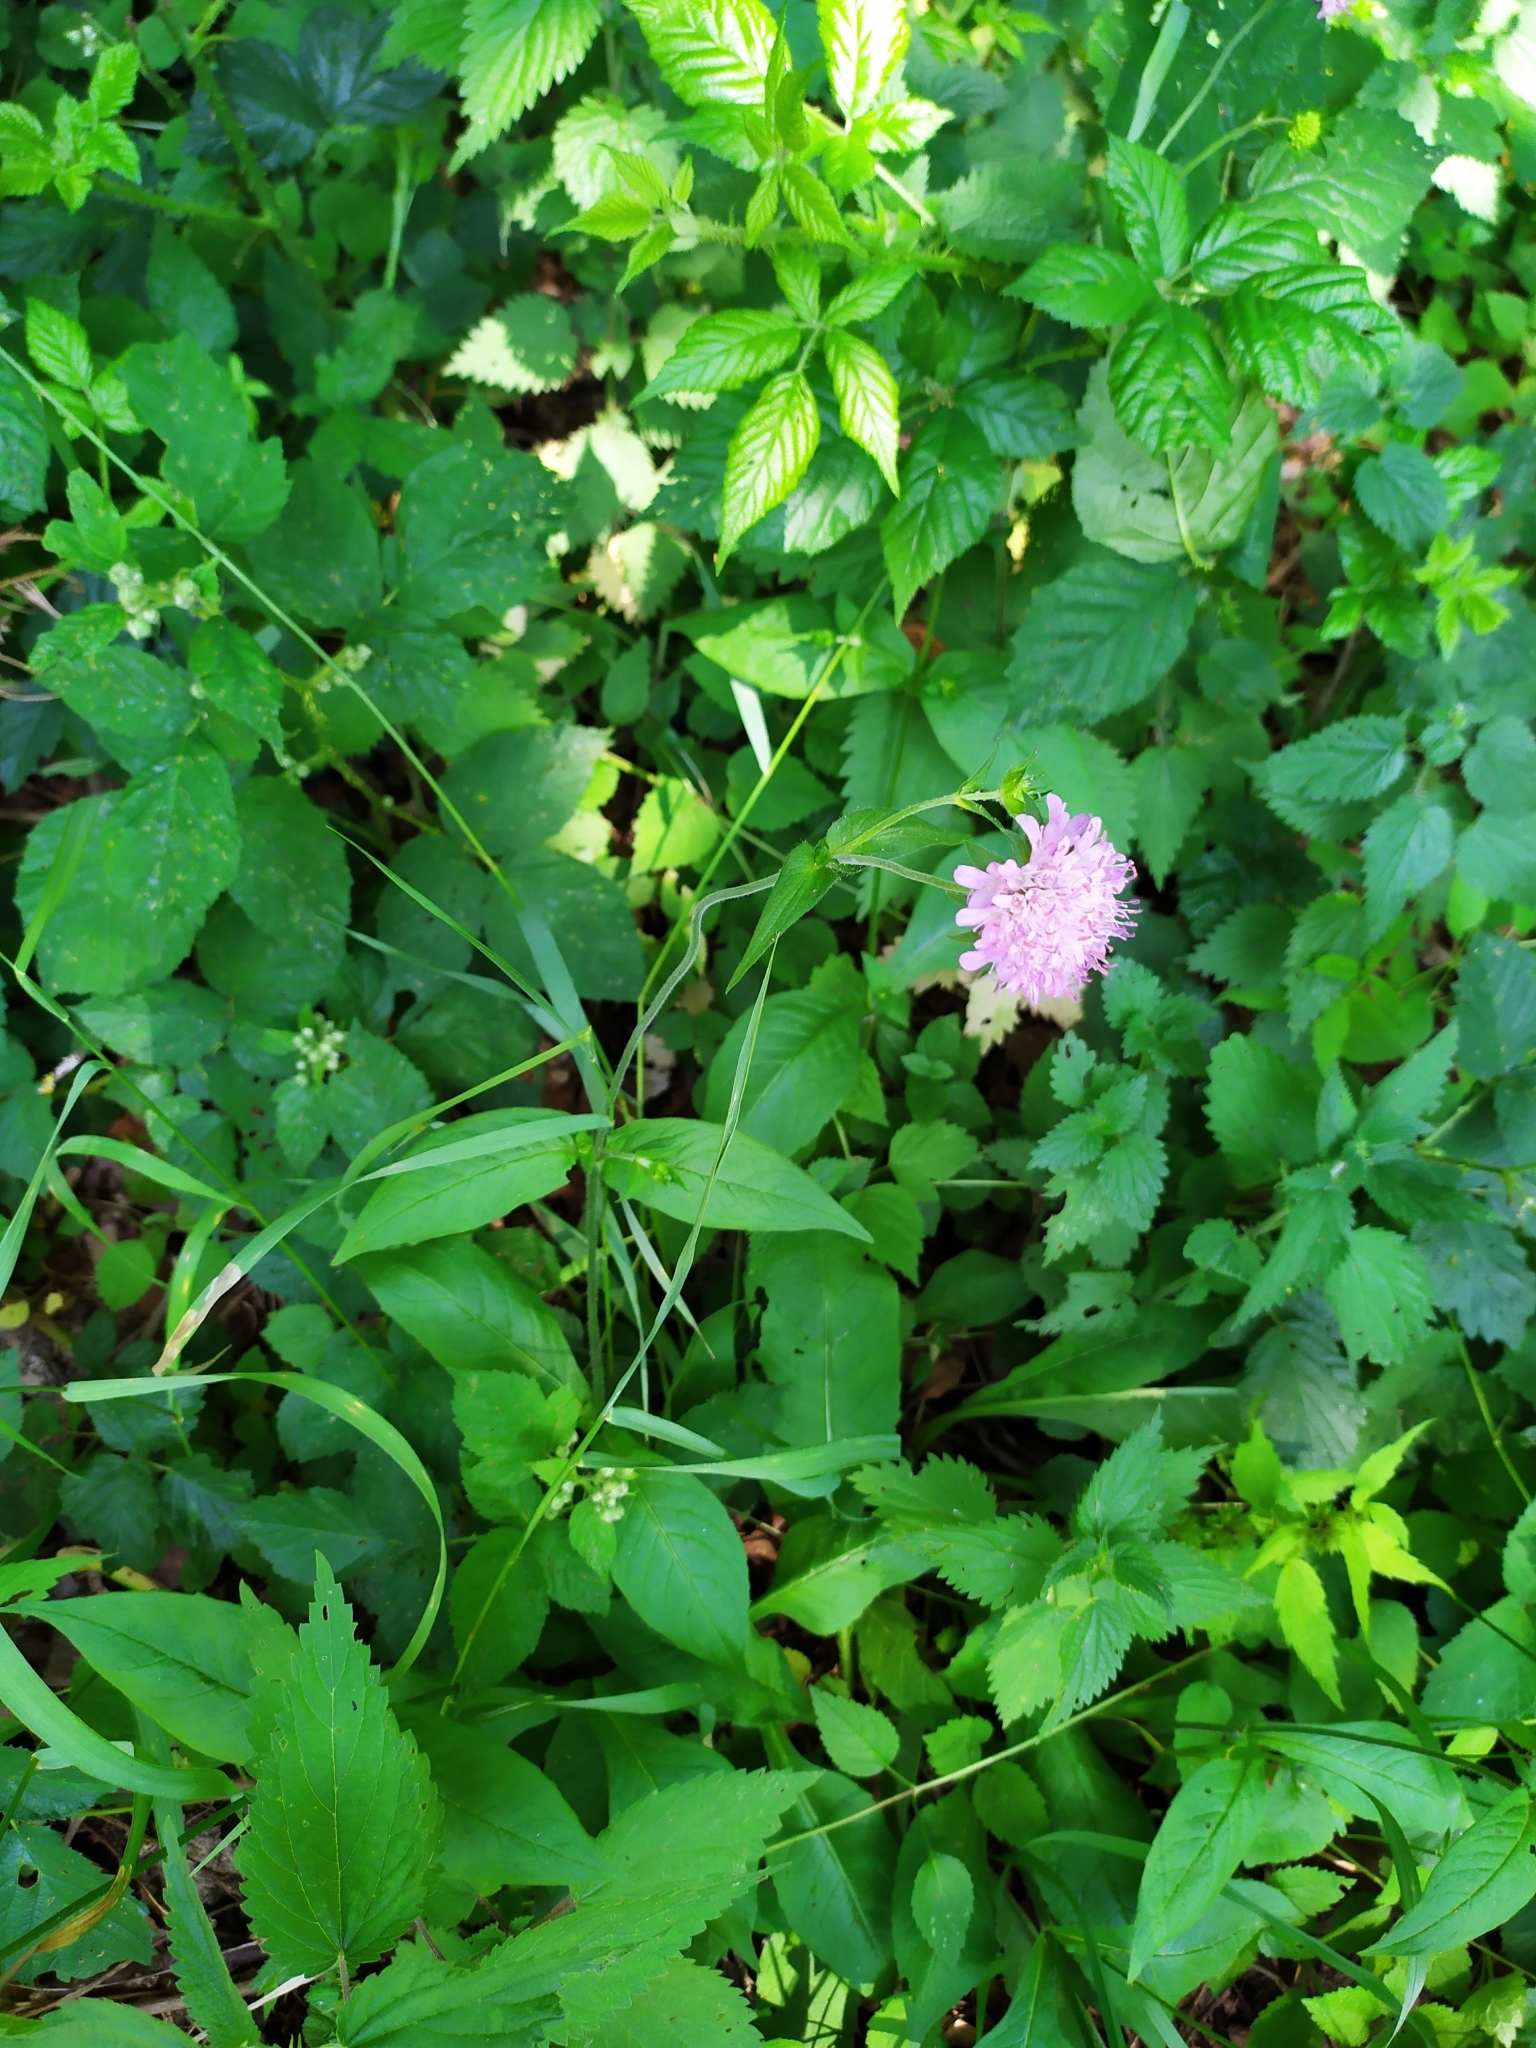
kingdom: Plantae
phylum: Tracheophyta
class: Magnoliopsida
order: Dipsacales
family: Caprifoliaceae
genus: Knautia
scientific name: Knautia drymeia
